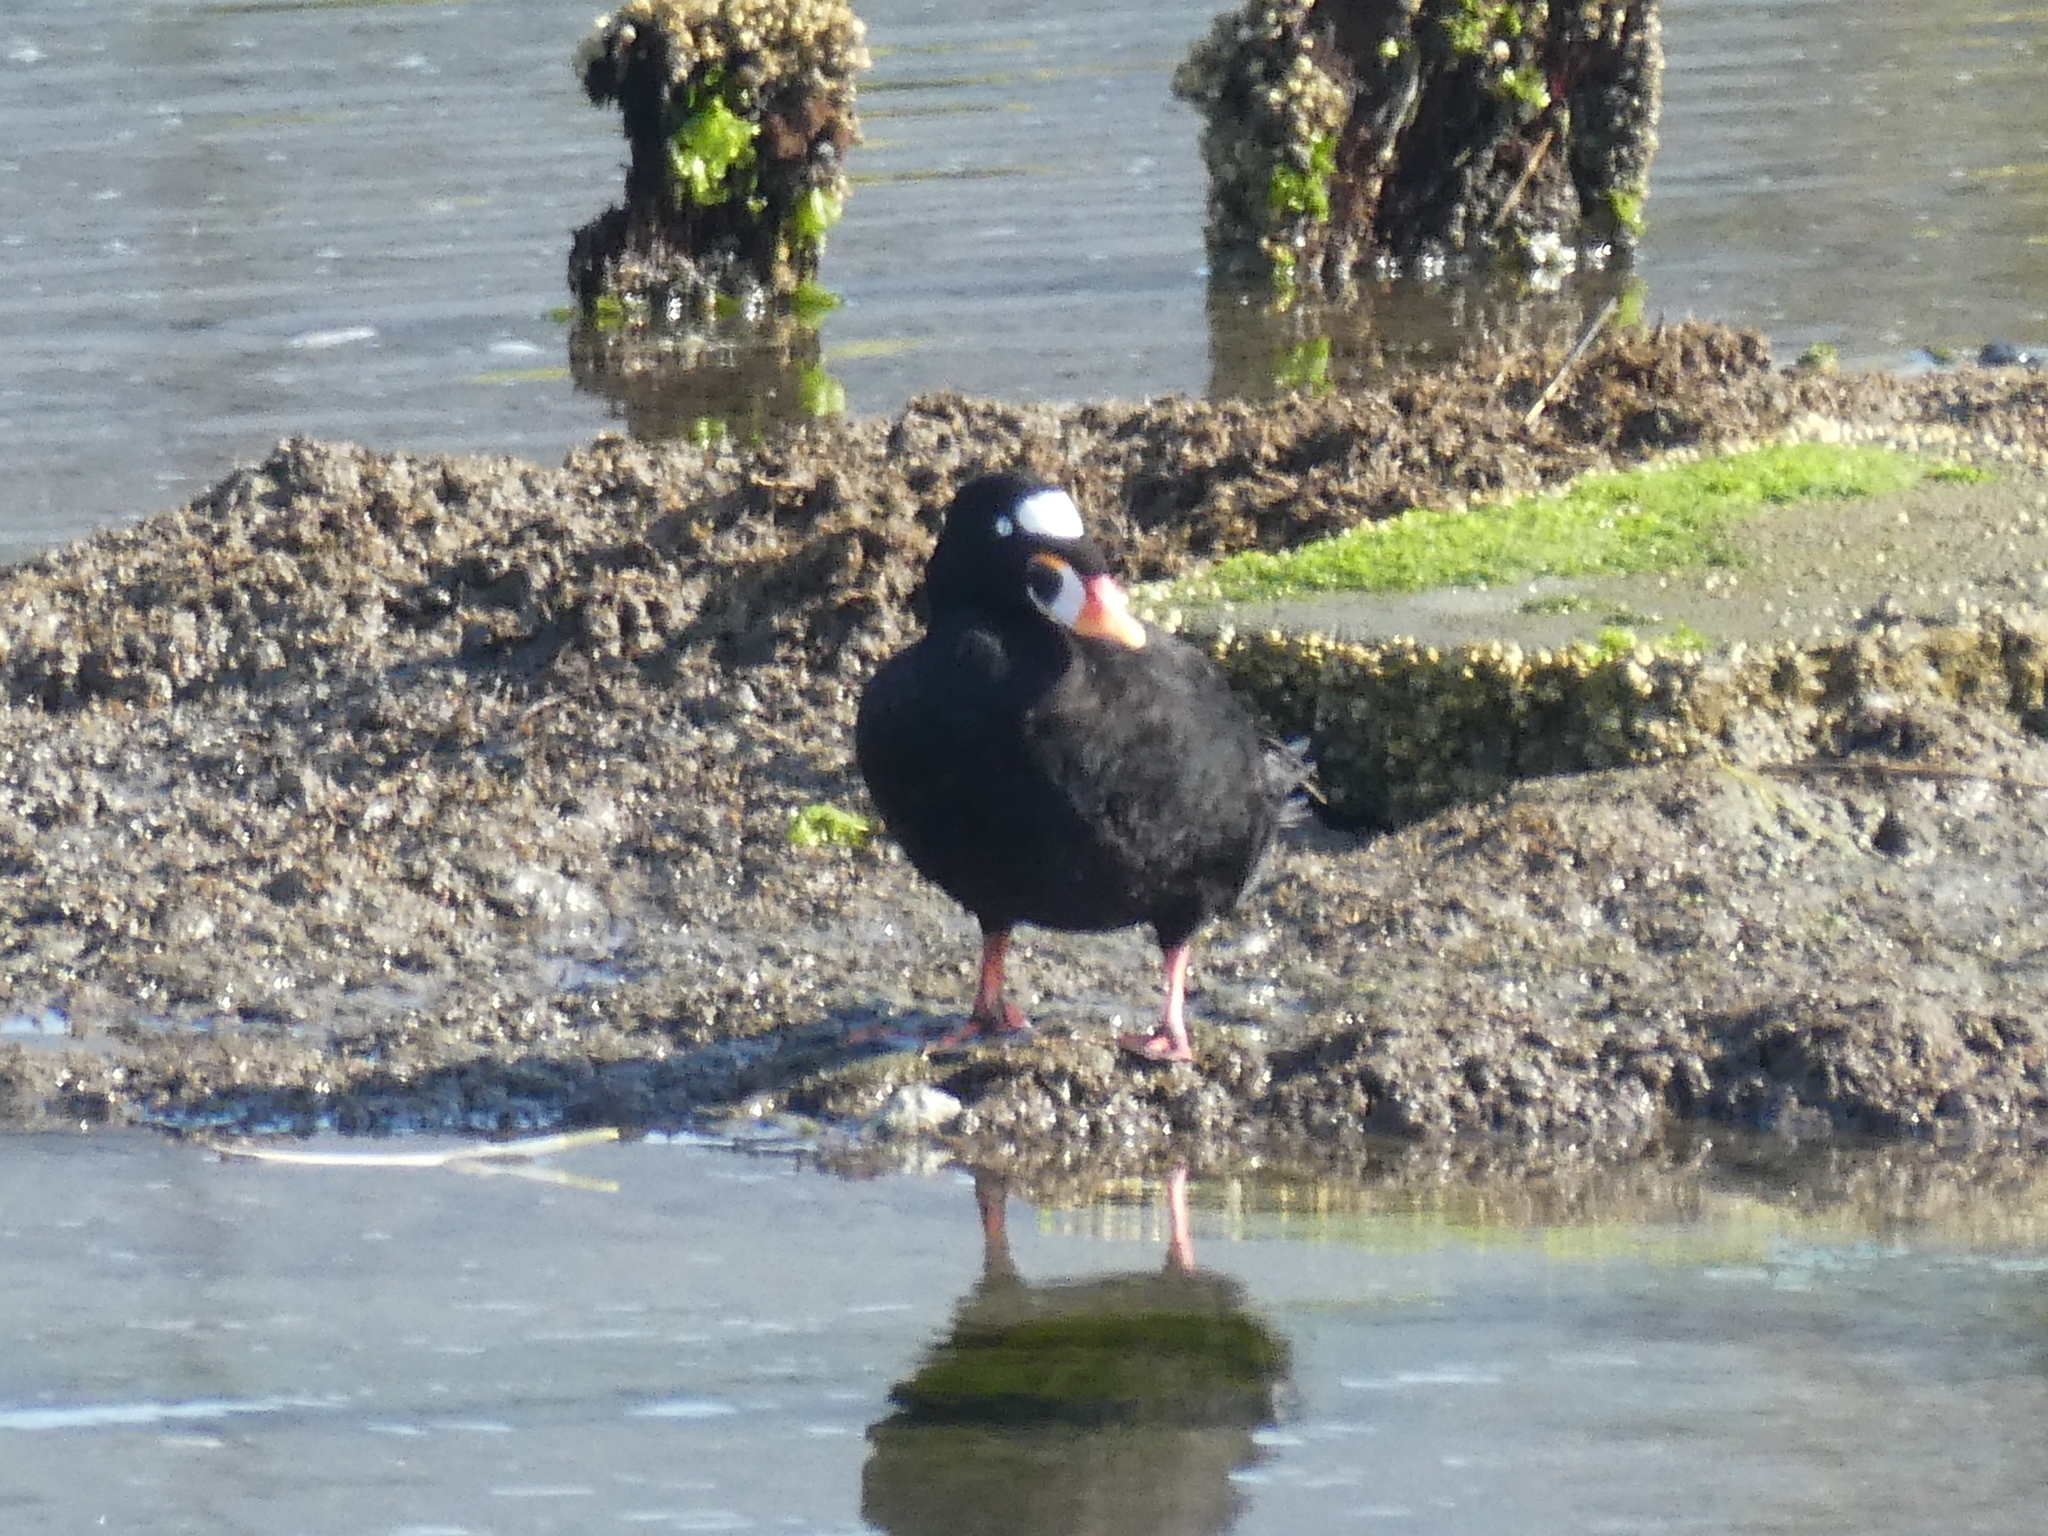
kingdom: Animalia
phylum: Chordata
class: Aves
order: Anseriformes
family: Anatidae
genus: Melanitta
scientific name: Melanitta perspicillata
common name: Surf scoter
